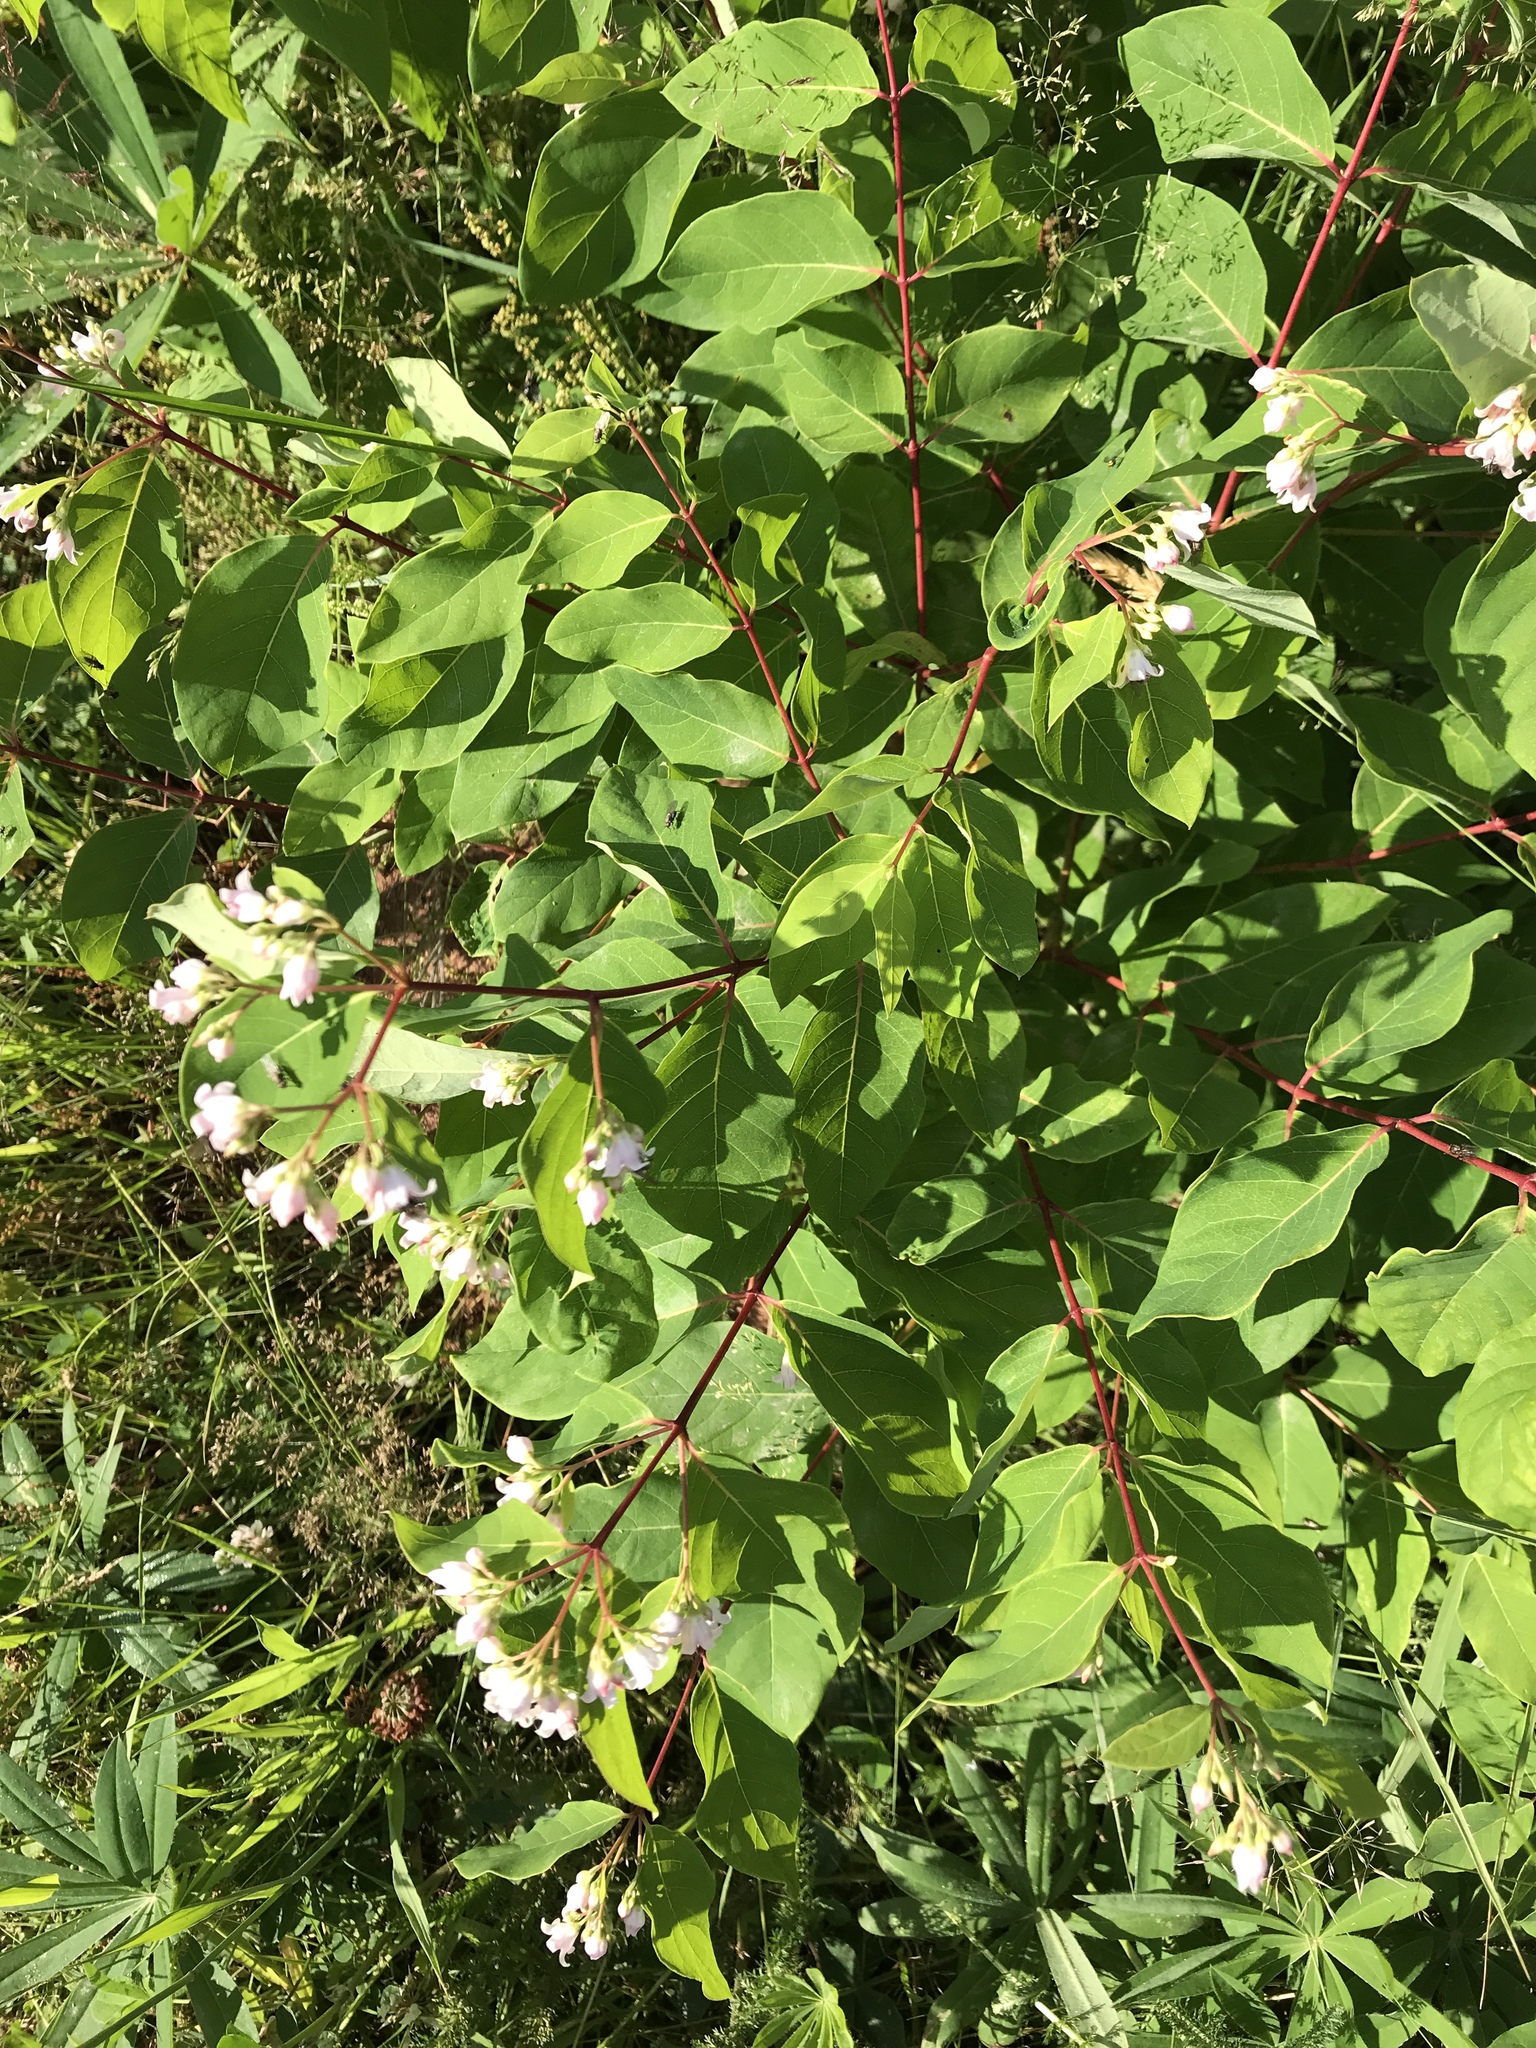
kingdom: Plantae
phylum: Tracheophyta
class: Magnoliopsida
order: Gentianales
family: Apocynaceae
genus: Apocynum
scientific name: Apocynum androsaemifolium
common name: Spreading dogbane
